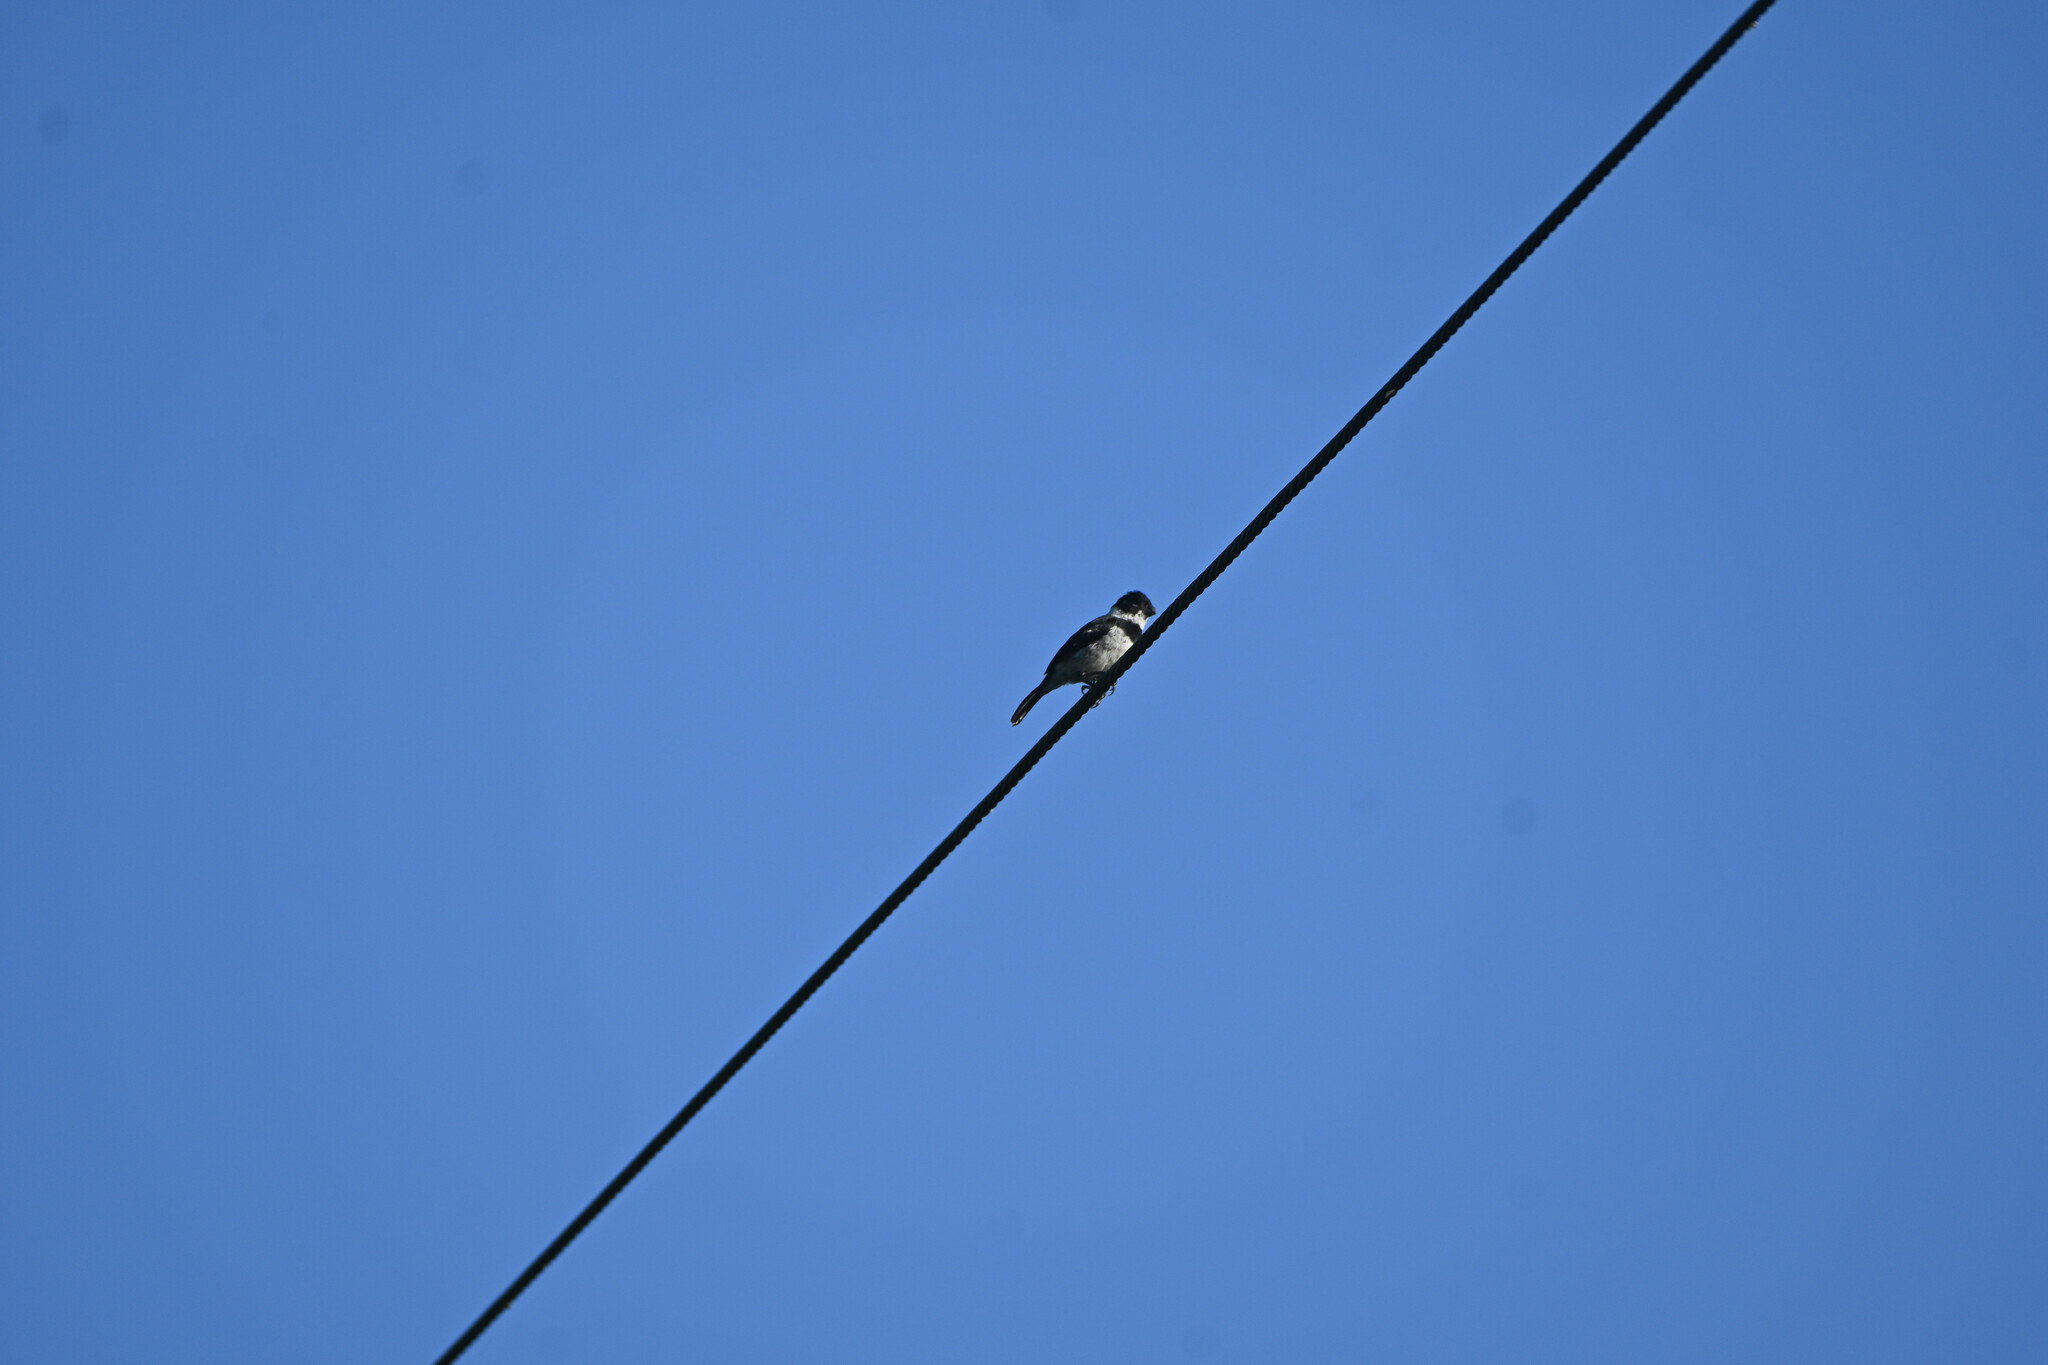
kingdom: Animalia
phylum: Chordata
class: Aves
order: Passeriformes
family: Thraupidae
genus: Sporophila
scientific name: Sporophila morelleti
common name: Morelet's seedeater
